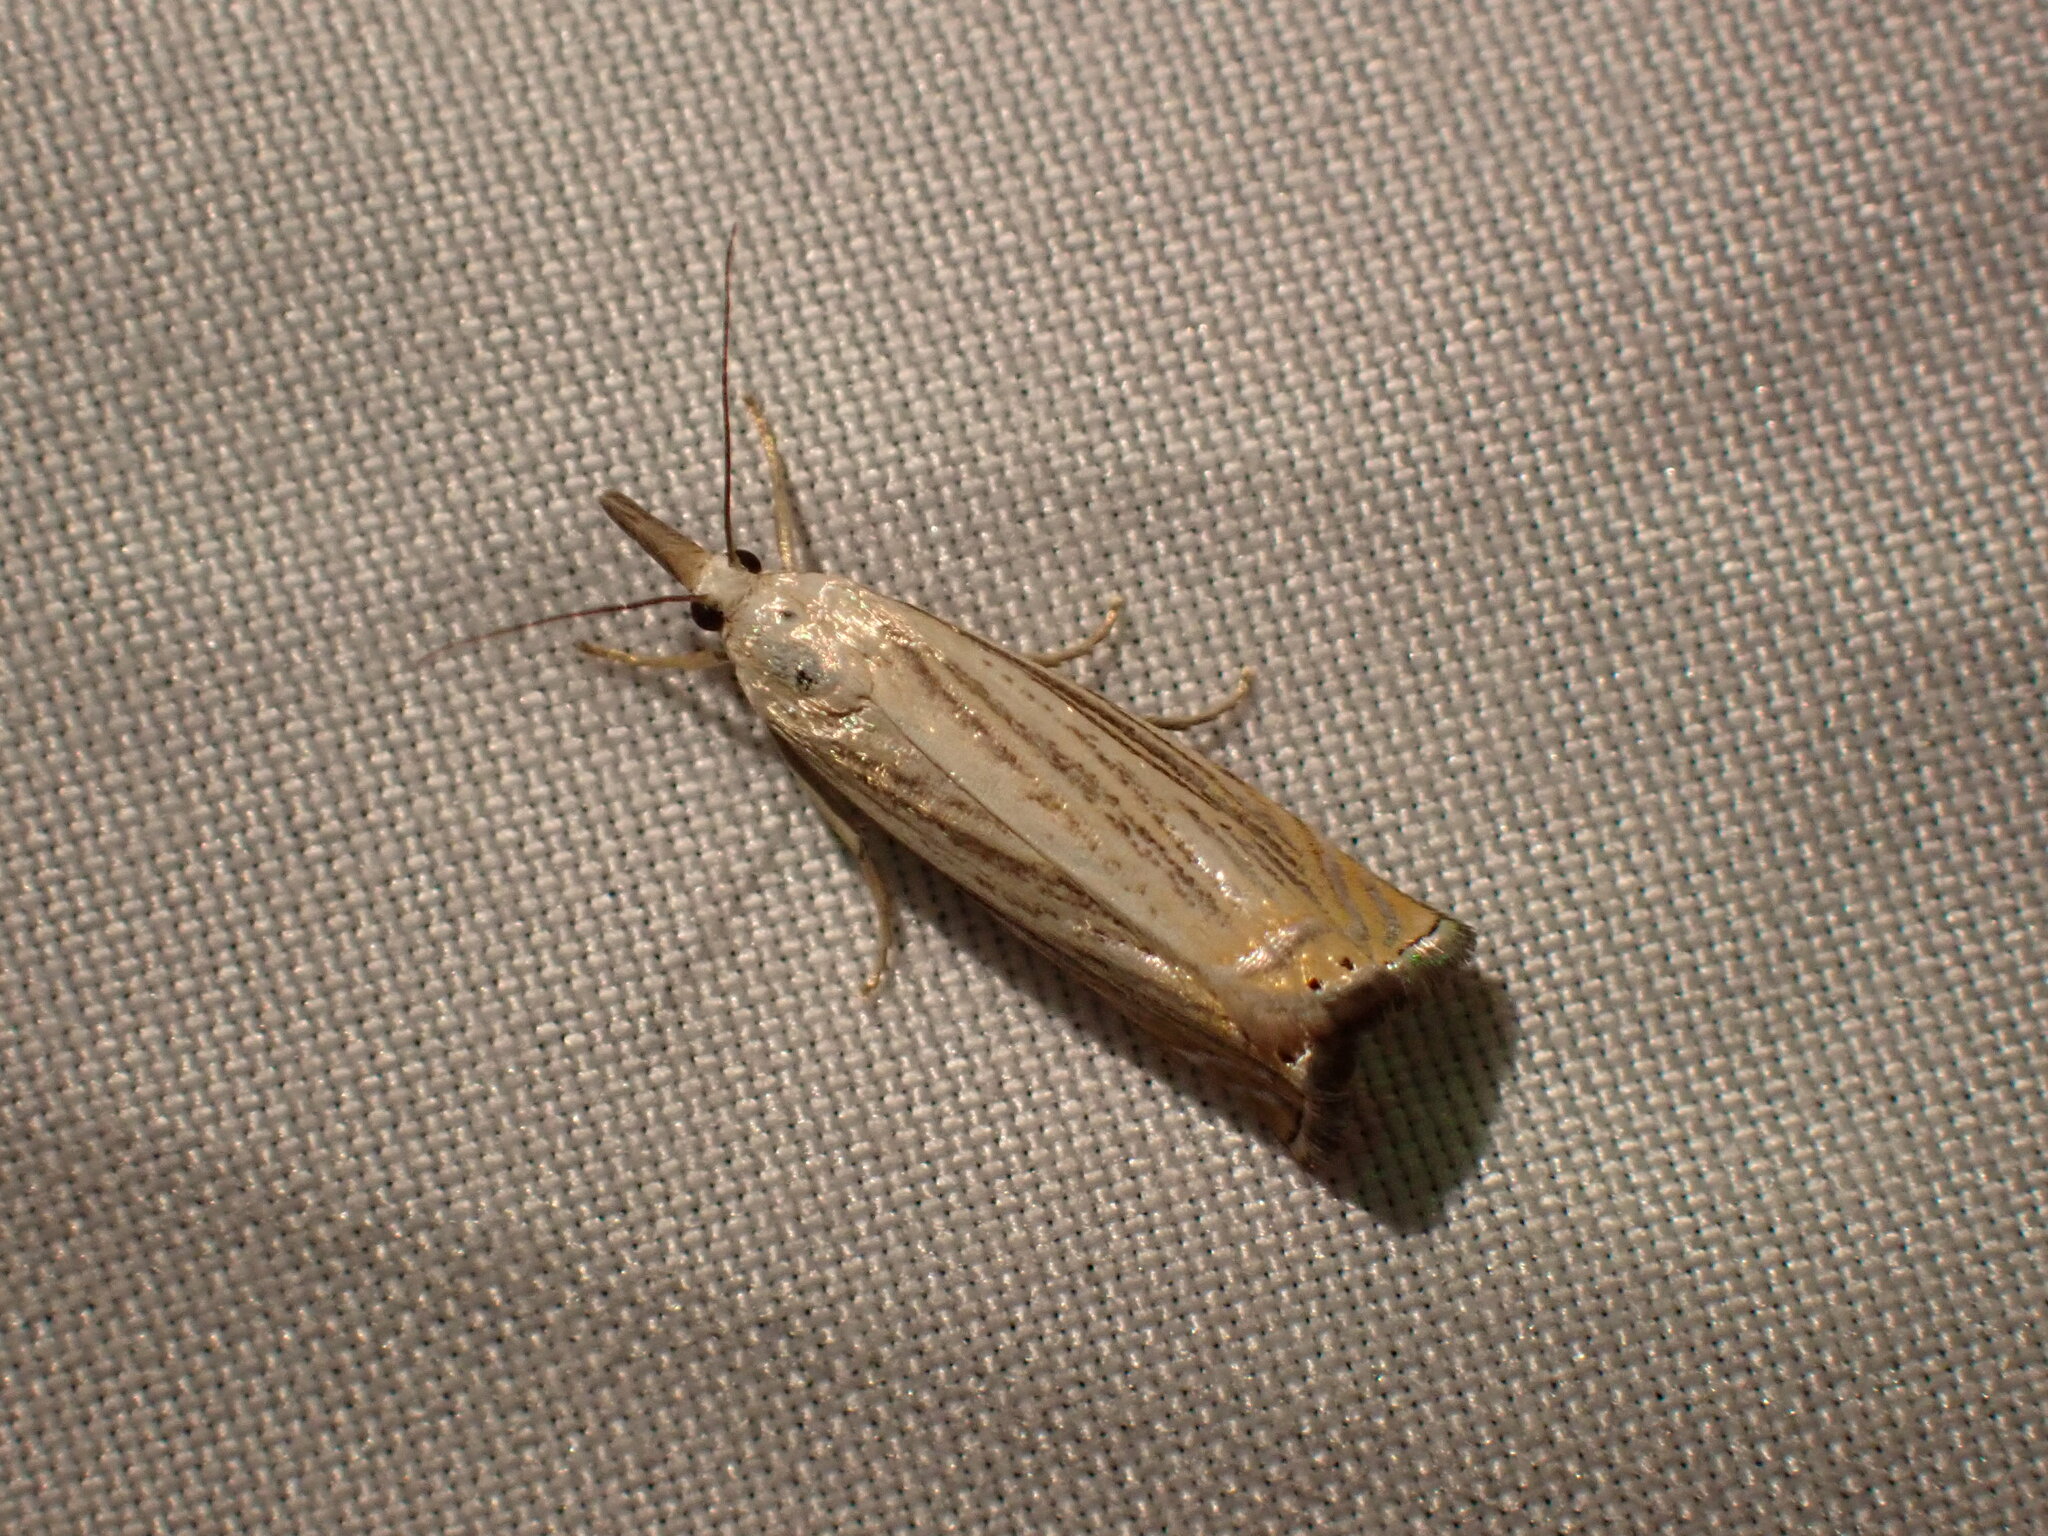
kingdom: Animalia
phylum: Arthropoda
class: Insecta
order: Lepidoptera
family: Crambidae
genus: Chrysoteuchia
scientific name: Chrysoteuchia topiarius
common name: Topiary grass-veneer
